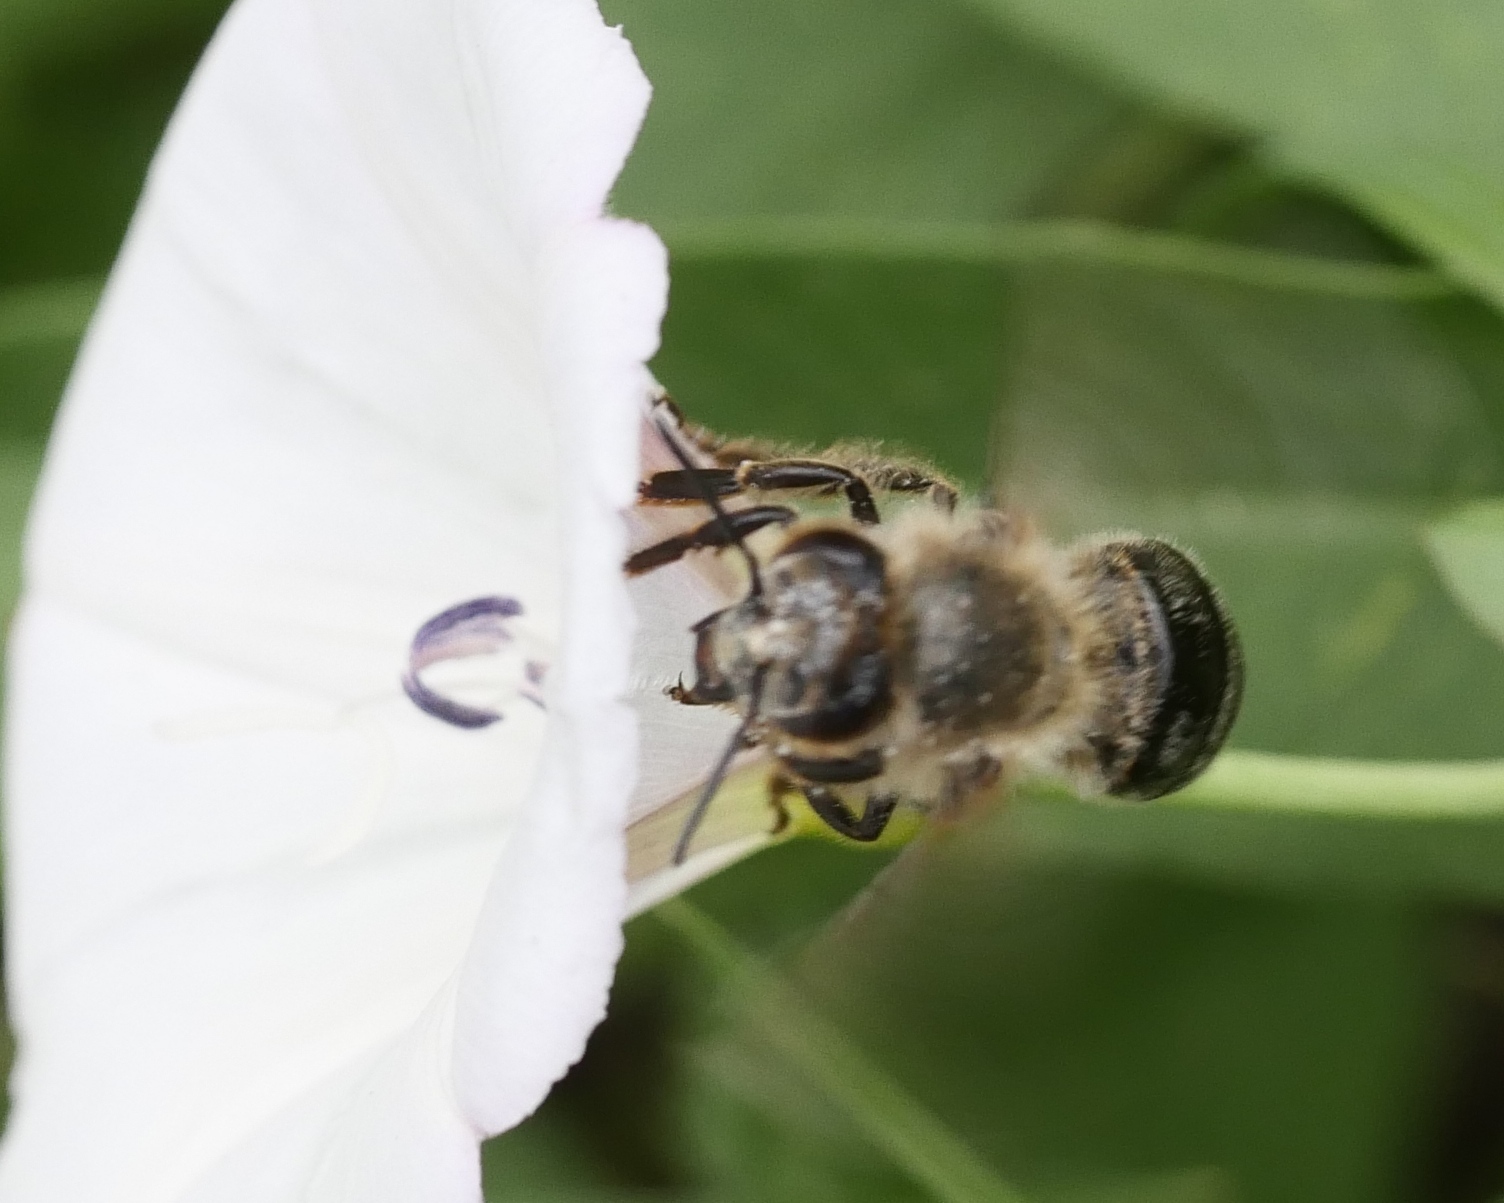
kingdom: Animalia
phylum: Arthropoda
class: Insecta
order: Hymenoptera
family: Apidae
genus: Apis
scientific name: Apis mellifera
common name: Honey bee
